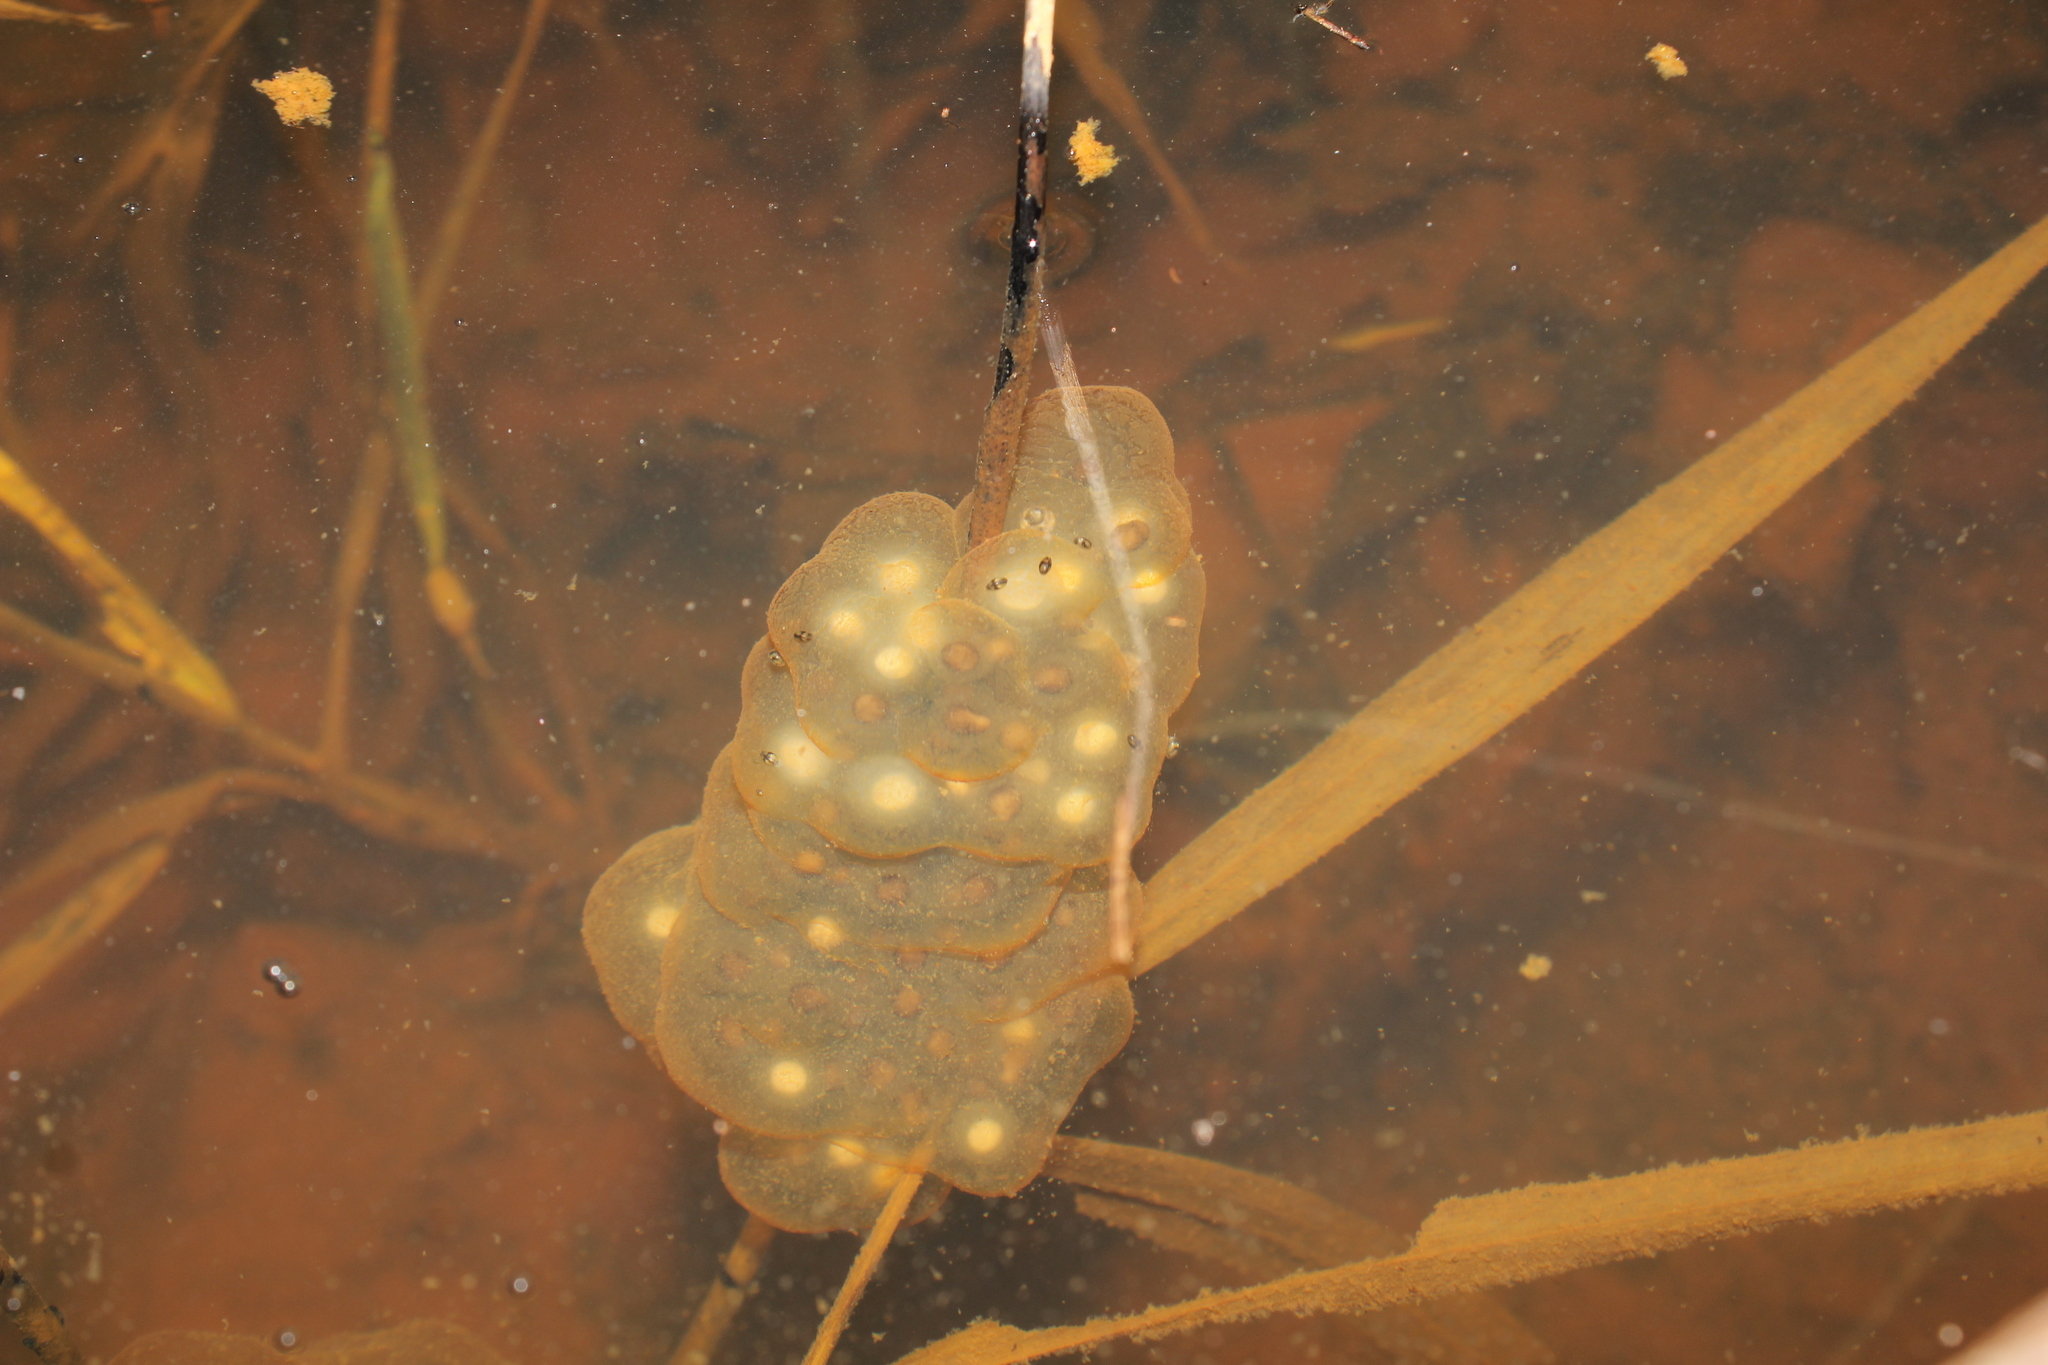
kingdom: Animalia
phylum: Chordata
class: Amphibia
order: Caudata
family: Ambystomatidae
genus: Ambystoma
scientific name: Ambystoma maculatum
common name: Spotted salamander
